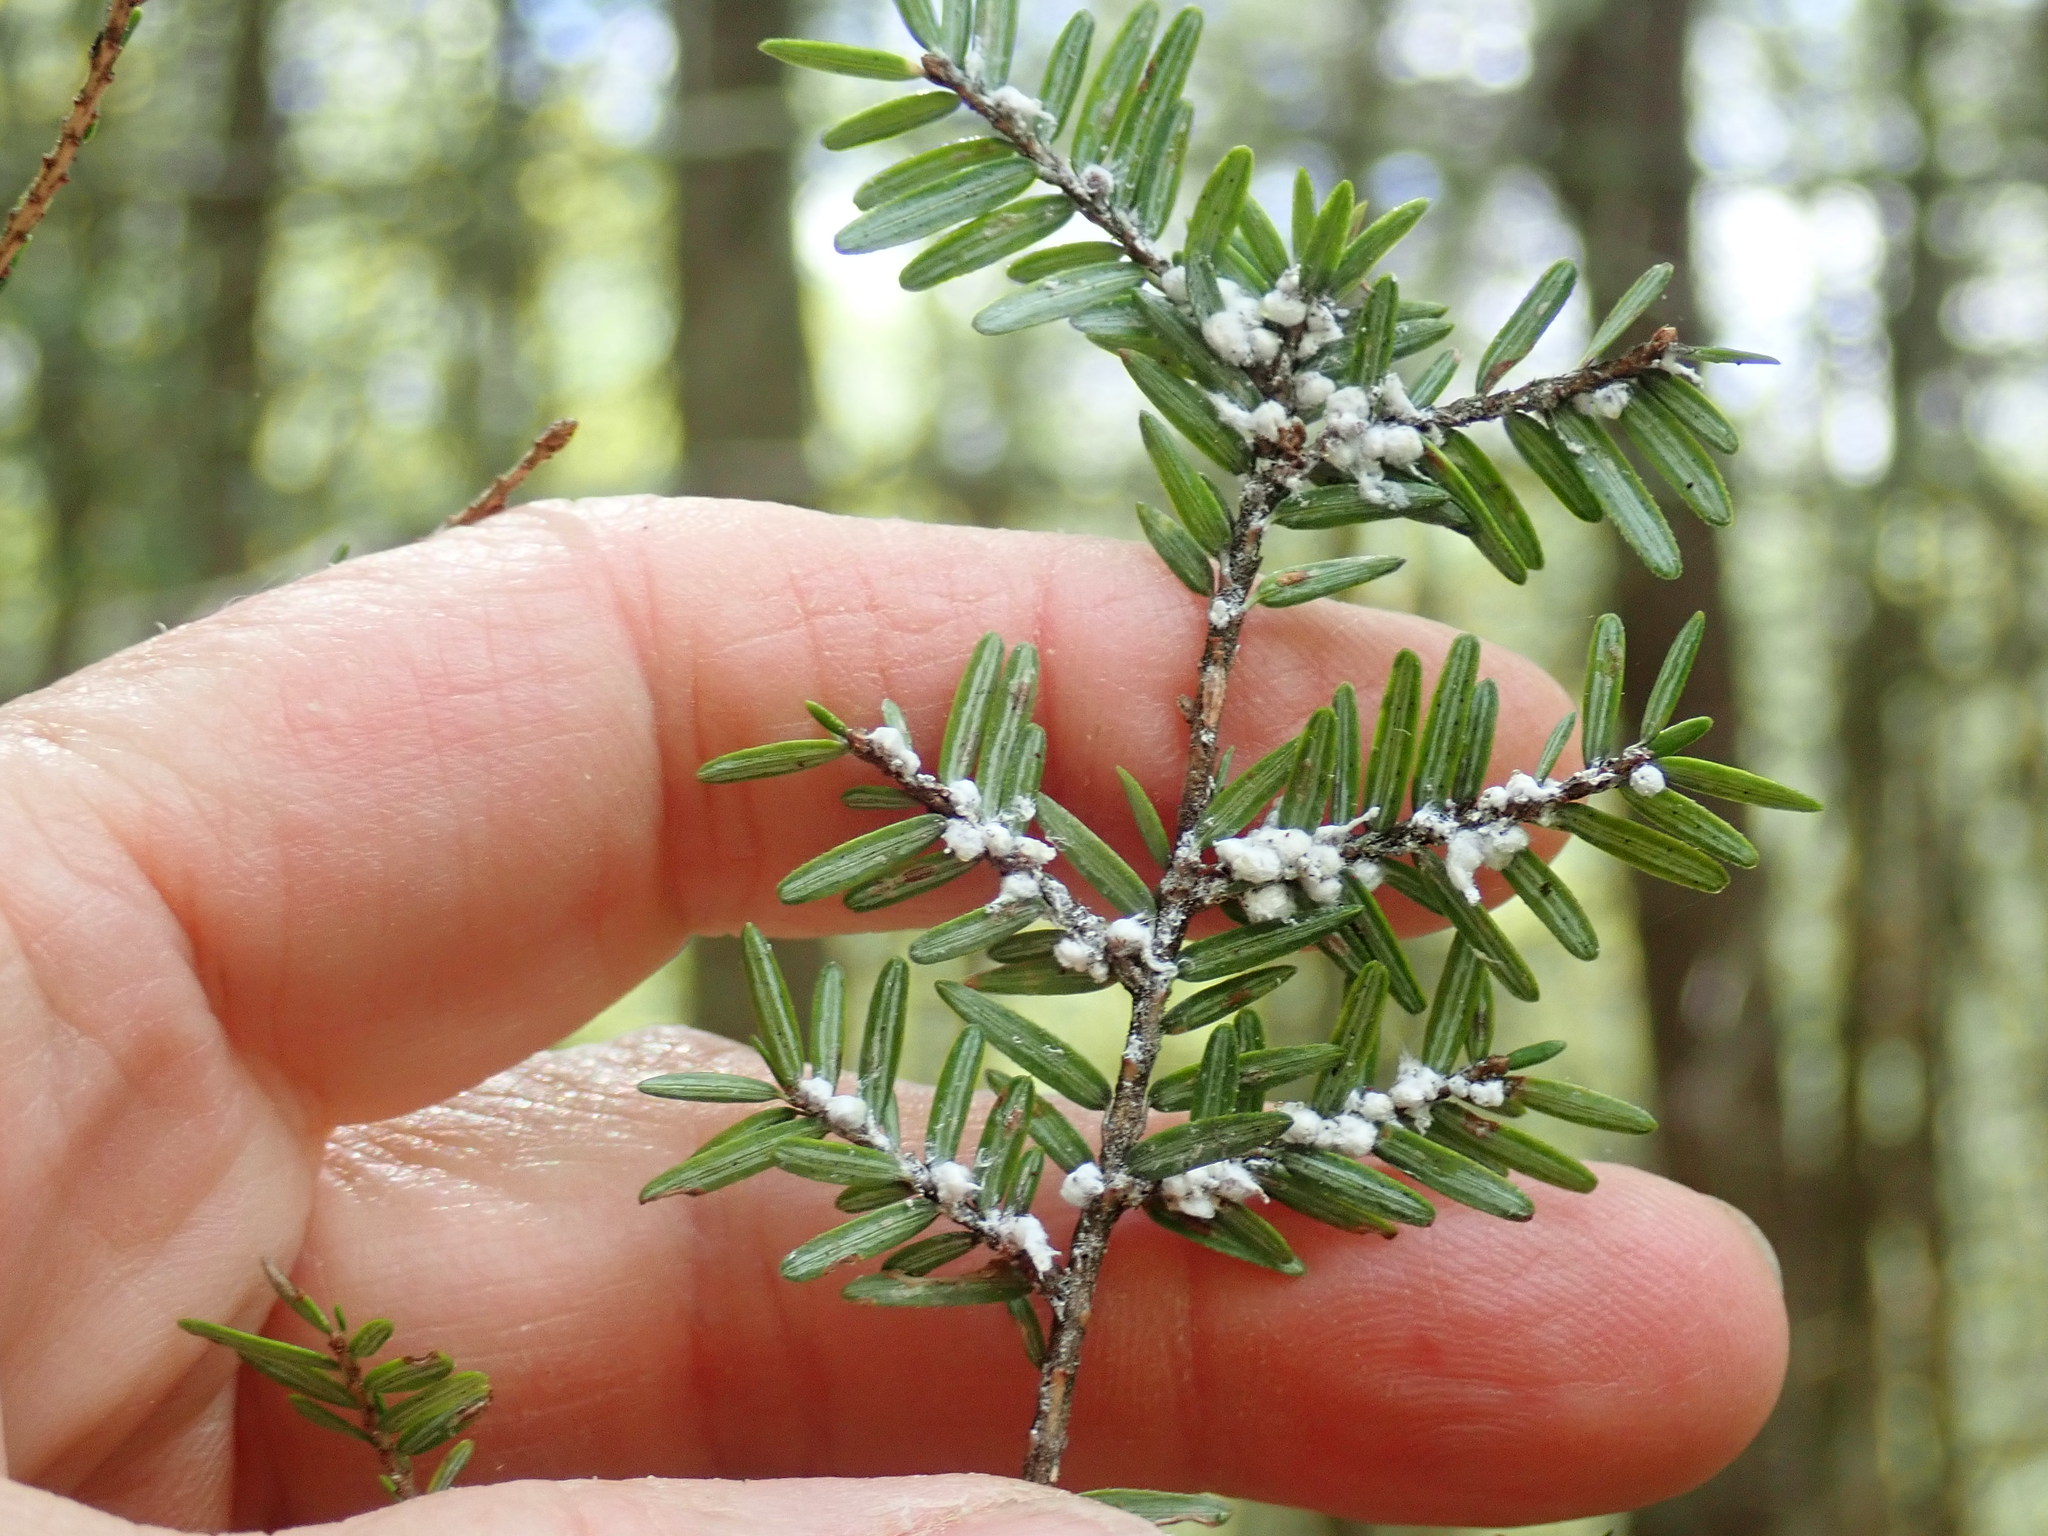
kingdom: Animalia
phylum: Arthropoda
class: Insecta
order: Hemiptera
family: Adelgidae
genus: Adelges
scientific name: Adelges tsugae
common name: Hemlock woolly adelgid
